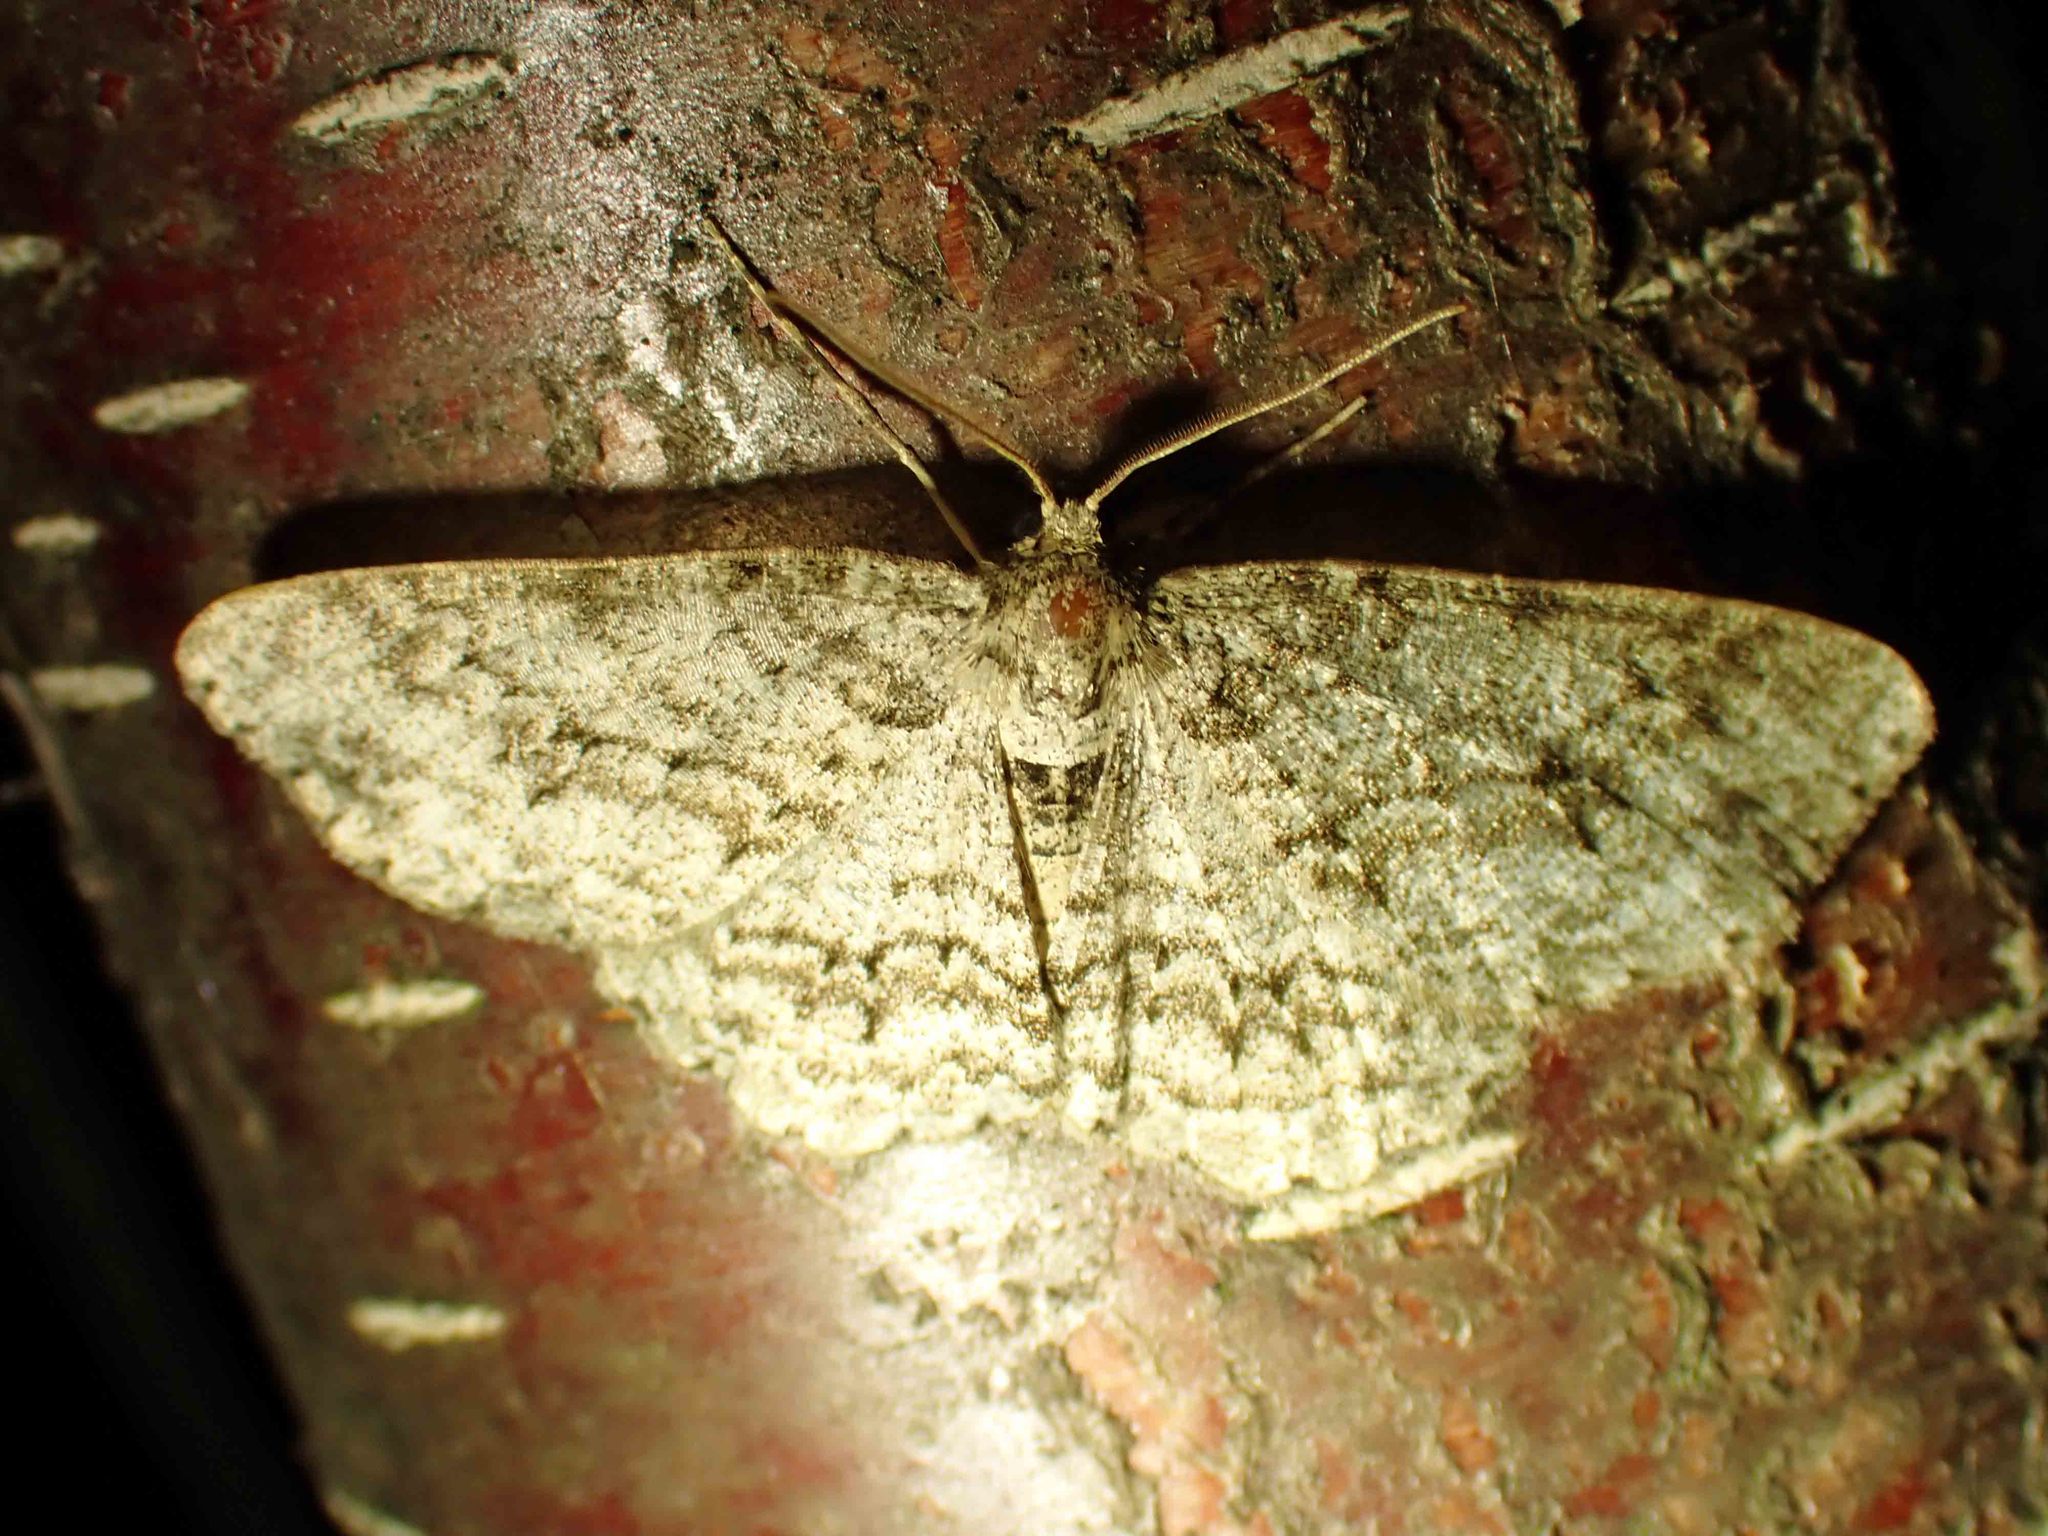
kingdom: Animalia
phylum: Arthropoda
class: Insecta
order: Lepidoptera
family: Geometridae
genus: Ectropis
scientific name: Ectropis crepuscularia
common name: Engrailed
